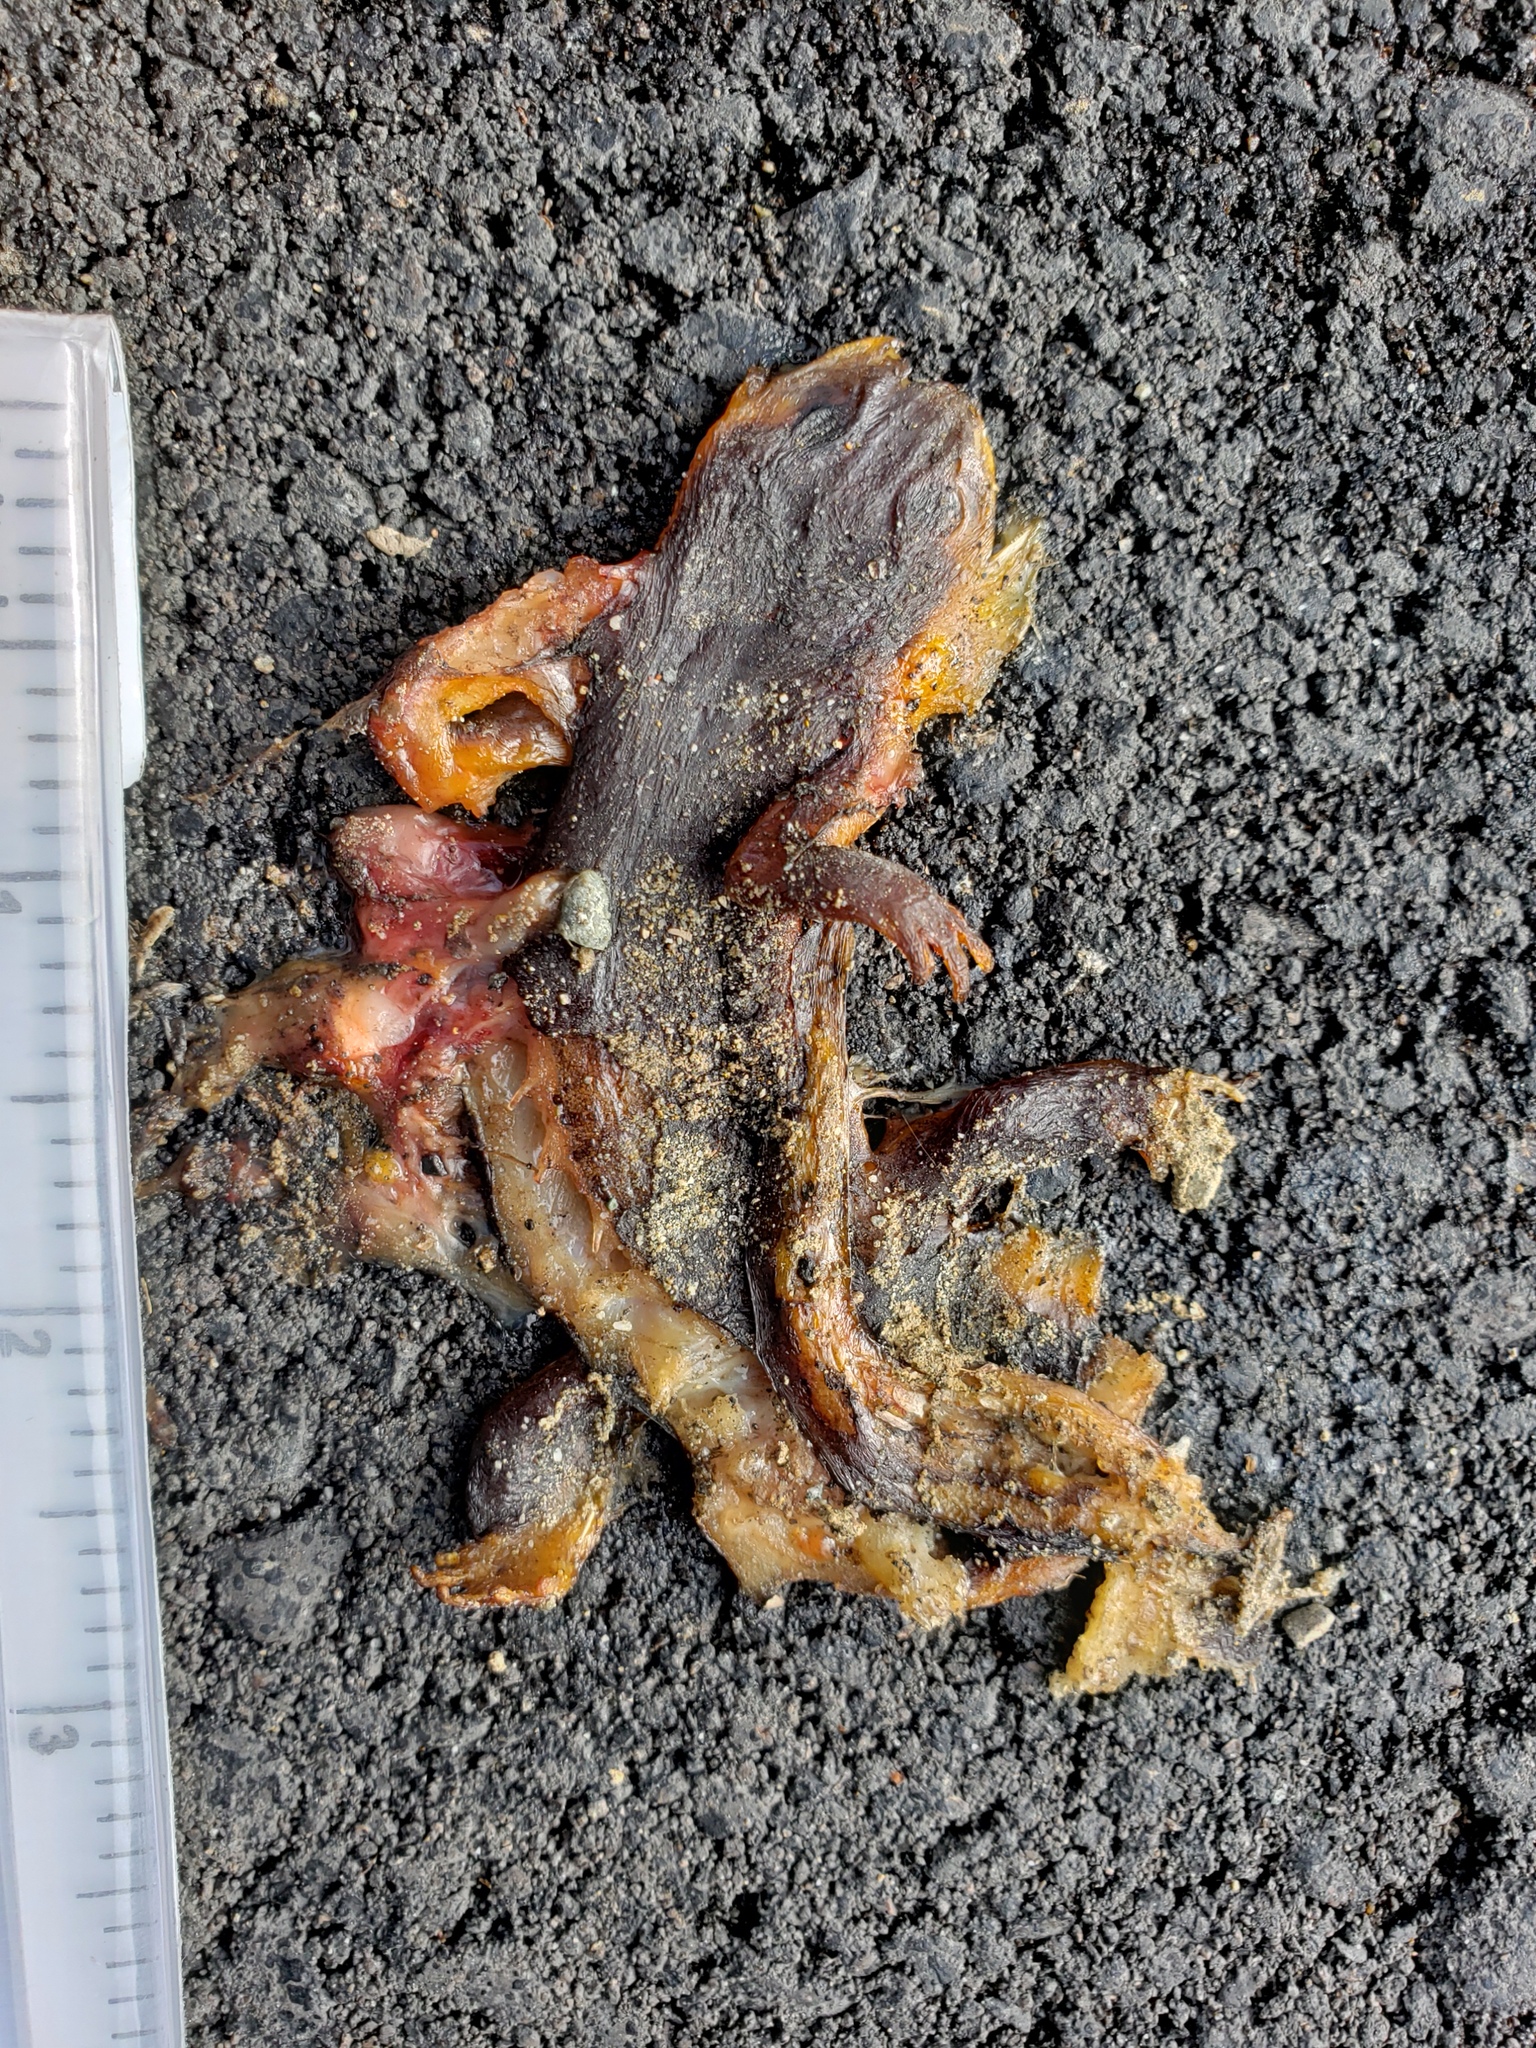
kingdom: Animalia
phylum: Chordata
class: Amphibia
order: Caudata
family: Salamandridae
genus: Taricha
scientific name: Taricha
